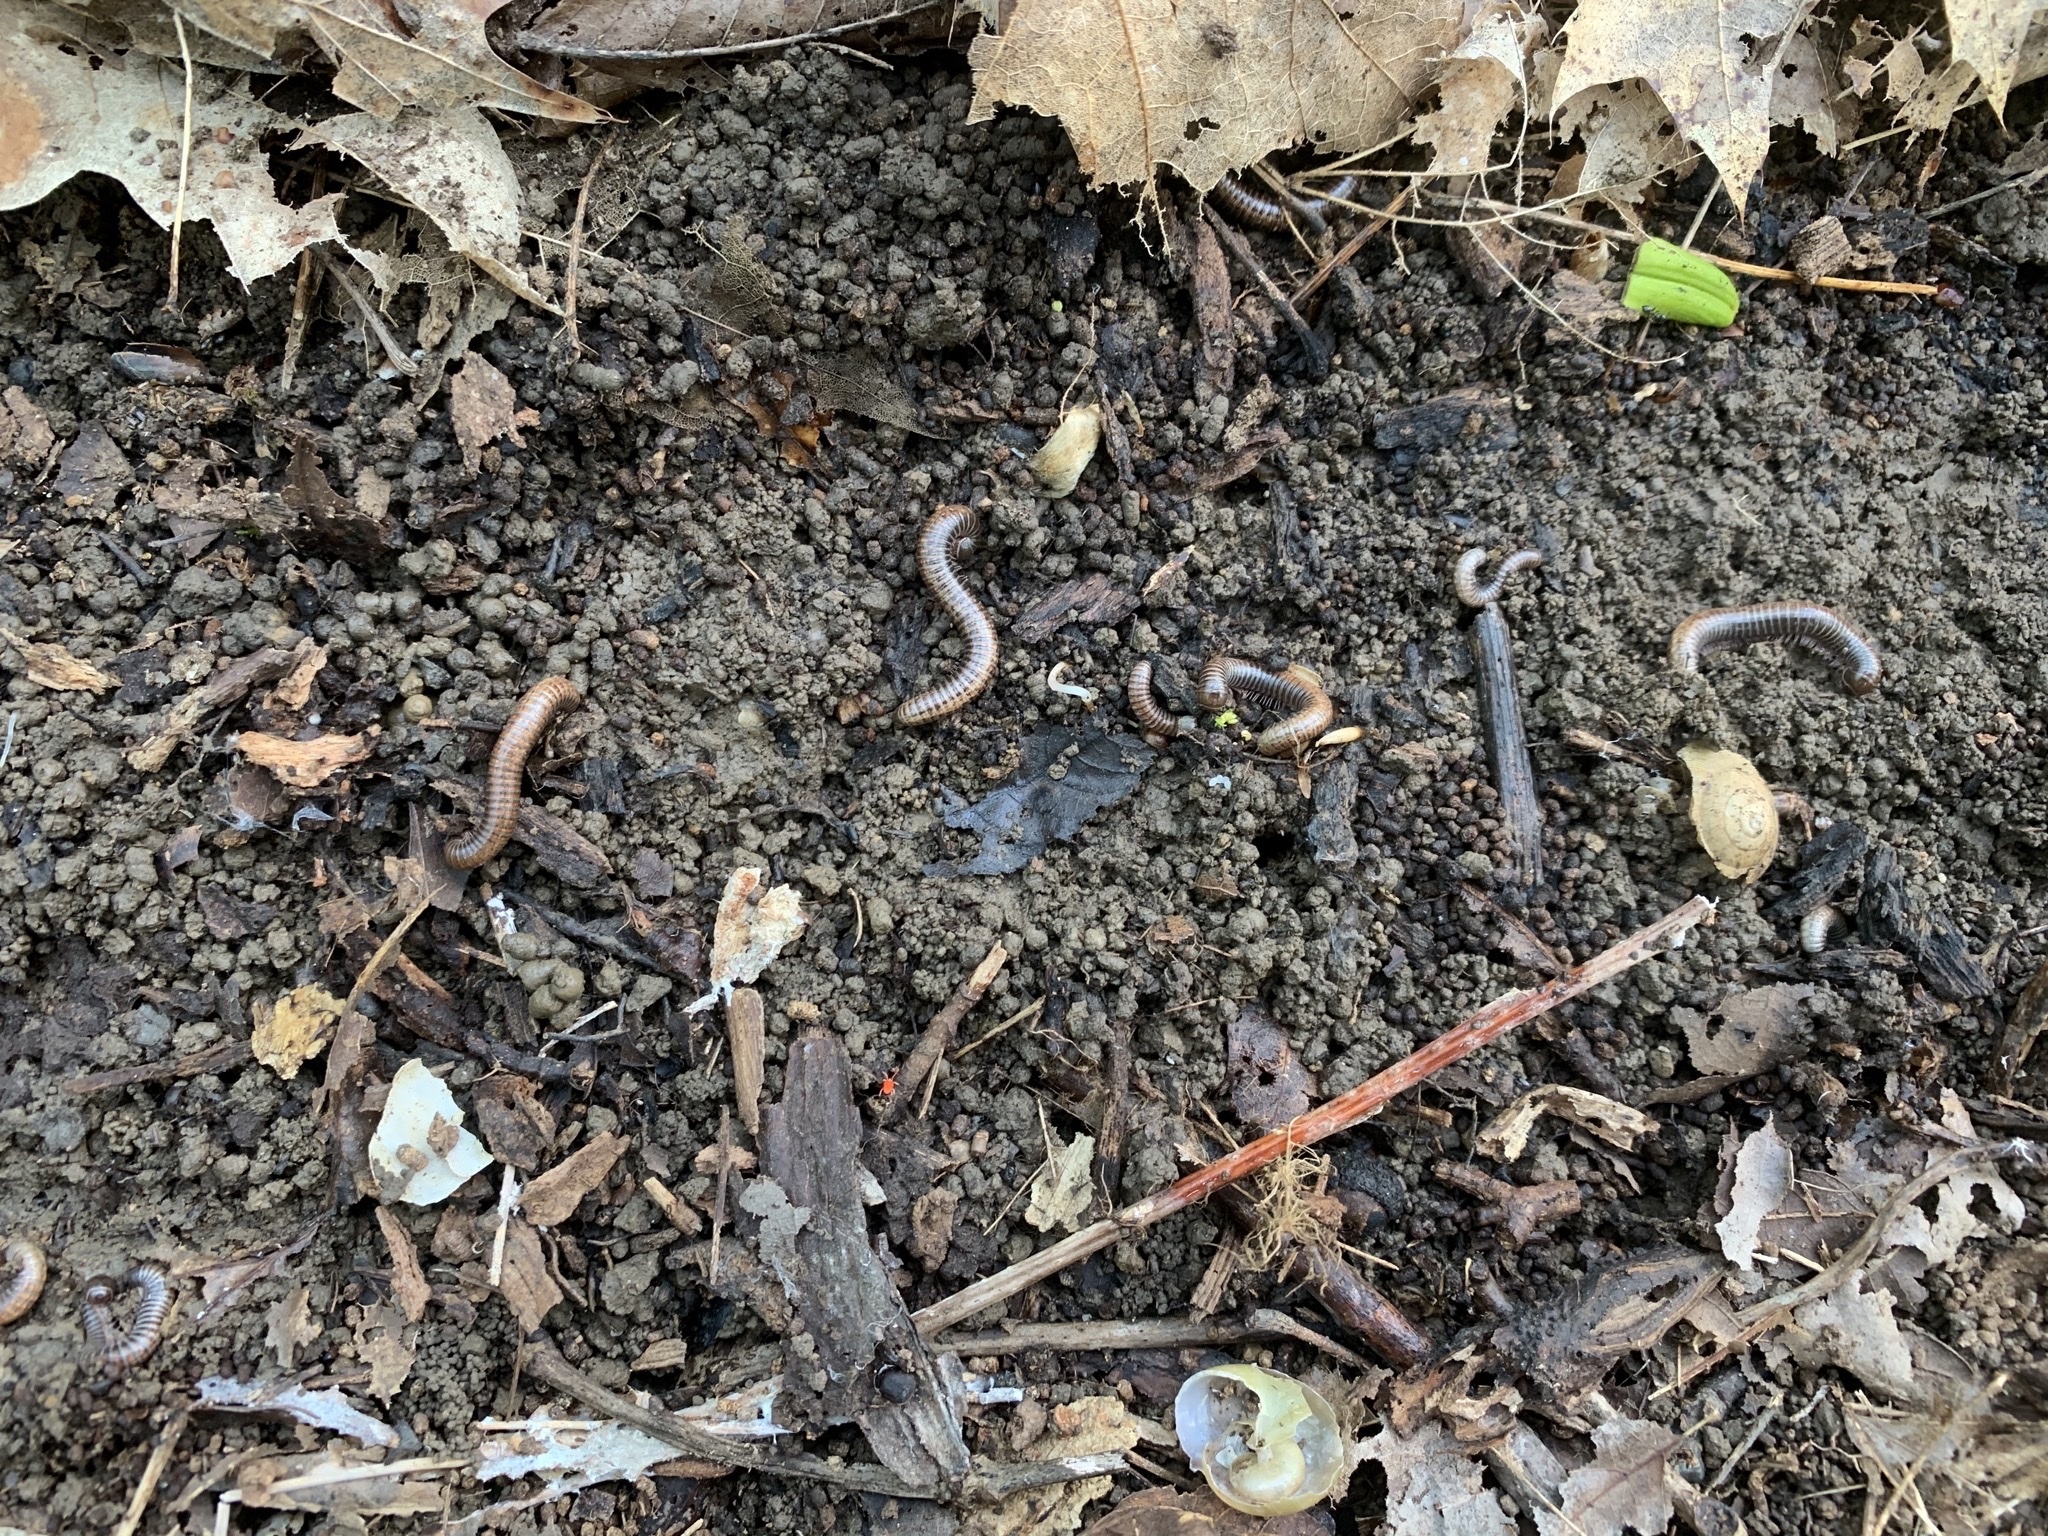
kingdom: Animalia
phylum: Arthropoda
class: Diplopoda
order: Spirostreptida
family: Choctellidae
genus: Choctella
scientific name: Choctella cumminsi
